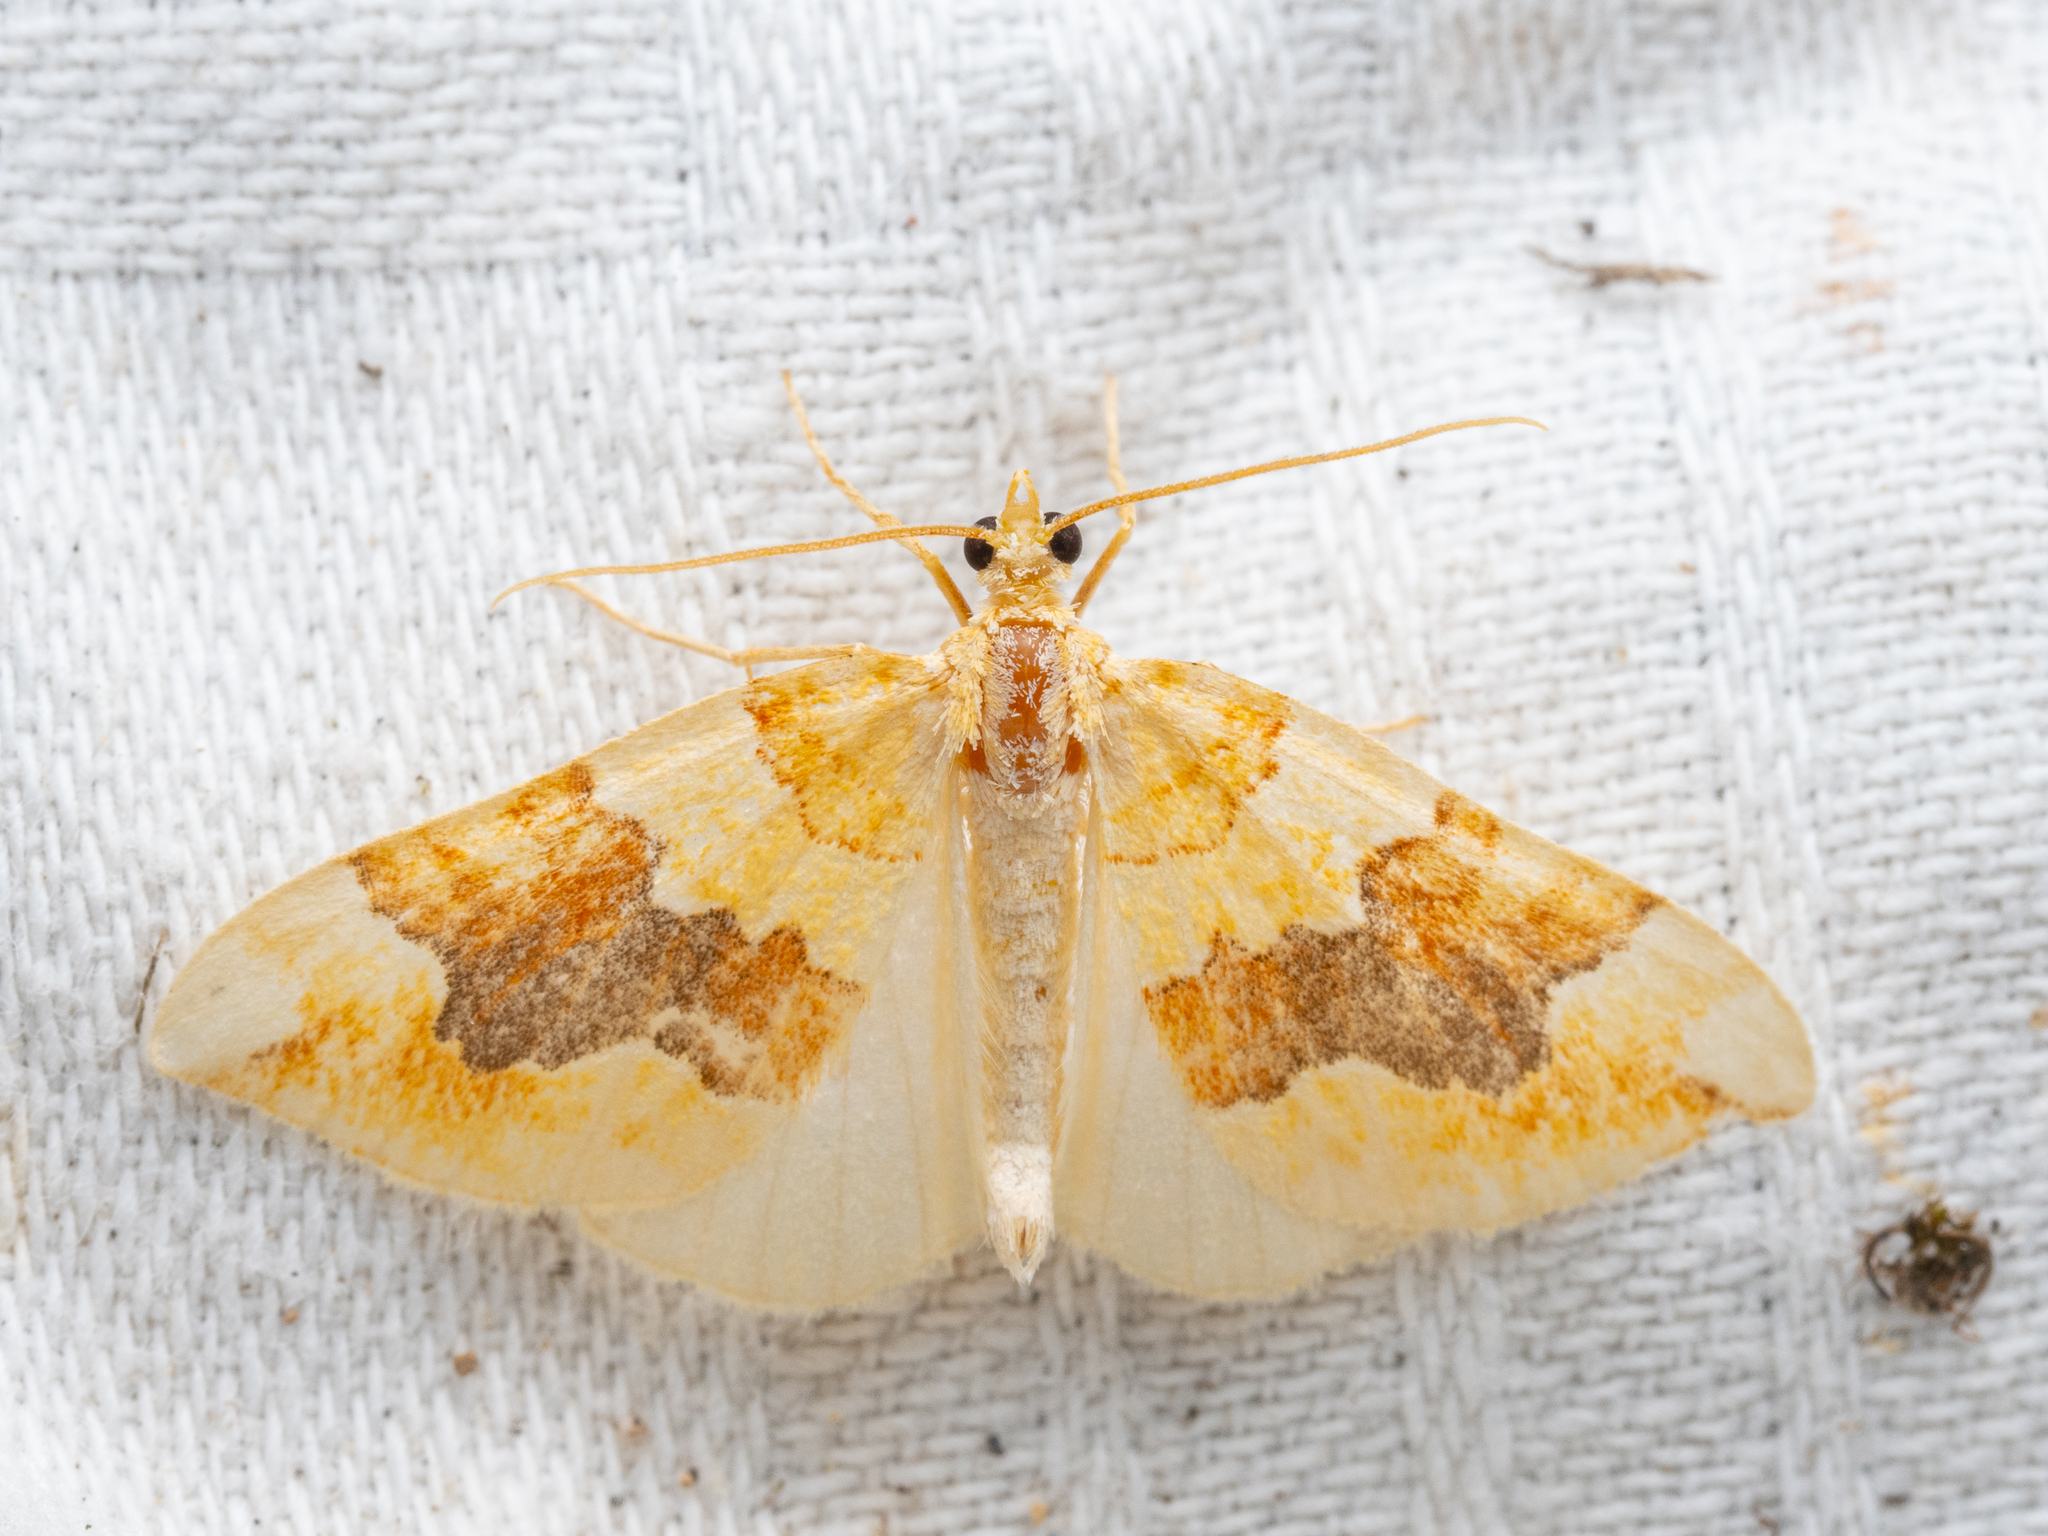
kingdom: Animalia
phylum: Arthropoda
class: Insecta
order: Lepidoptera
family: Geometridae
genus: Cidaria
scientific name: Cidaria fulvata
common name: Barred yellow
